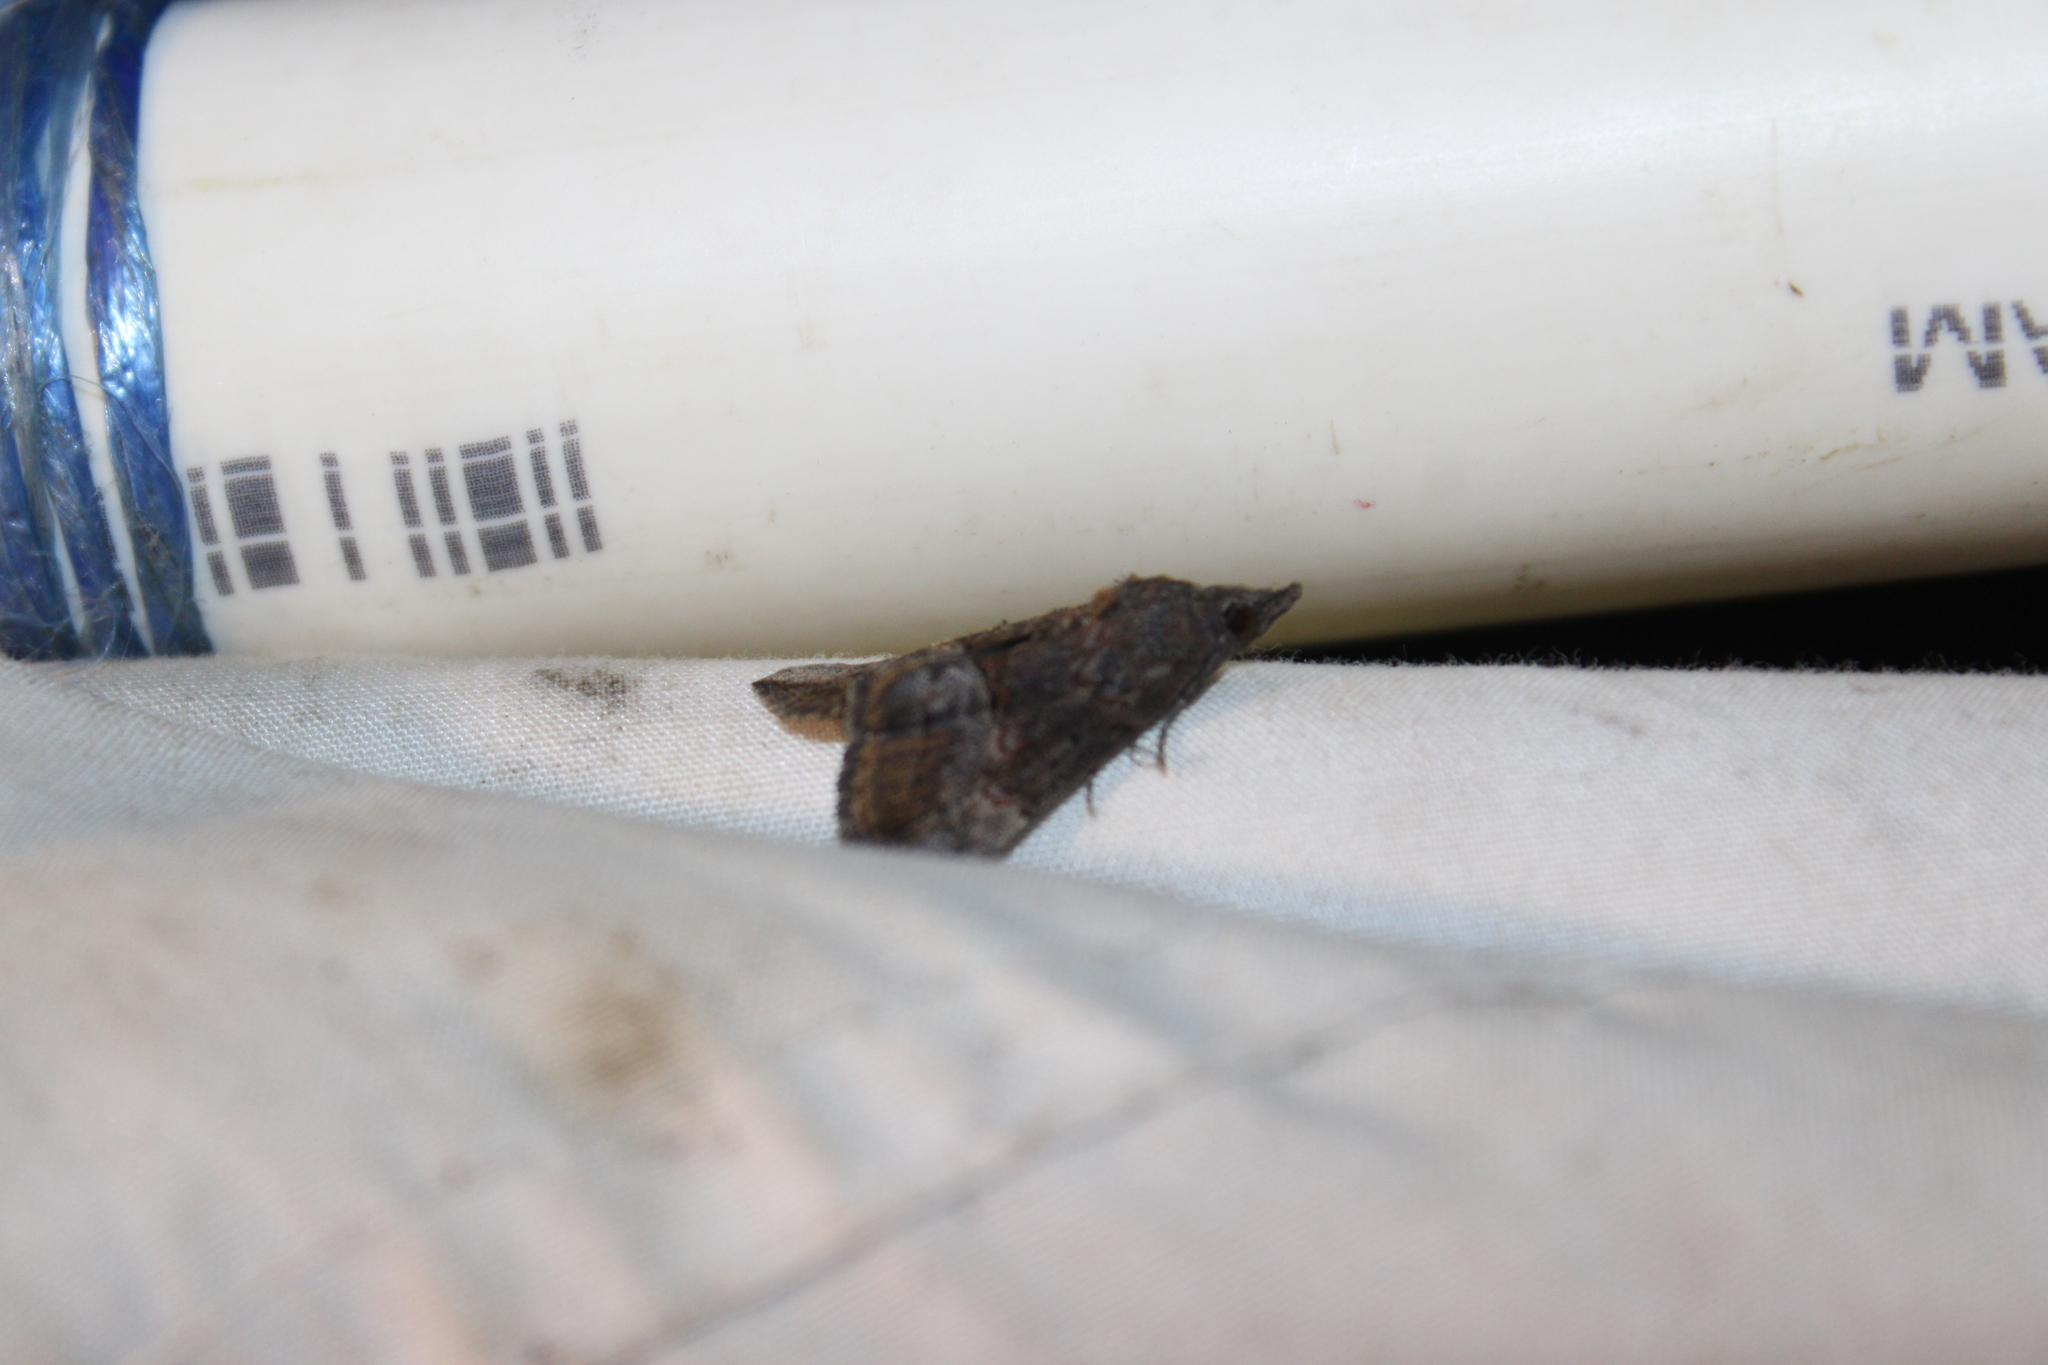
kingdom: Animalia
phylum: Arthropoda
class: Insecta
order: Lepidoptera
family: Erebidae
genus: Hypena
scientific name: Hypena scabra
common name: Green cloverworm
